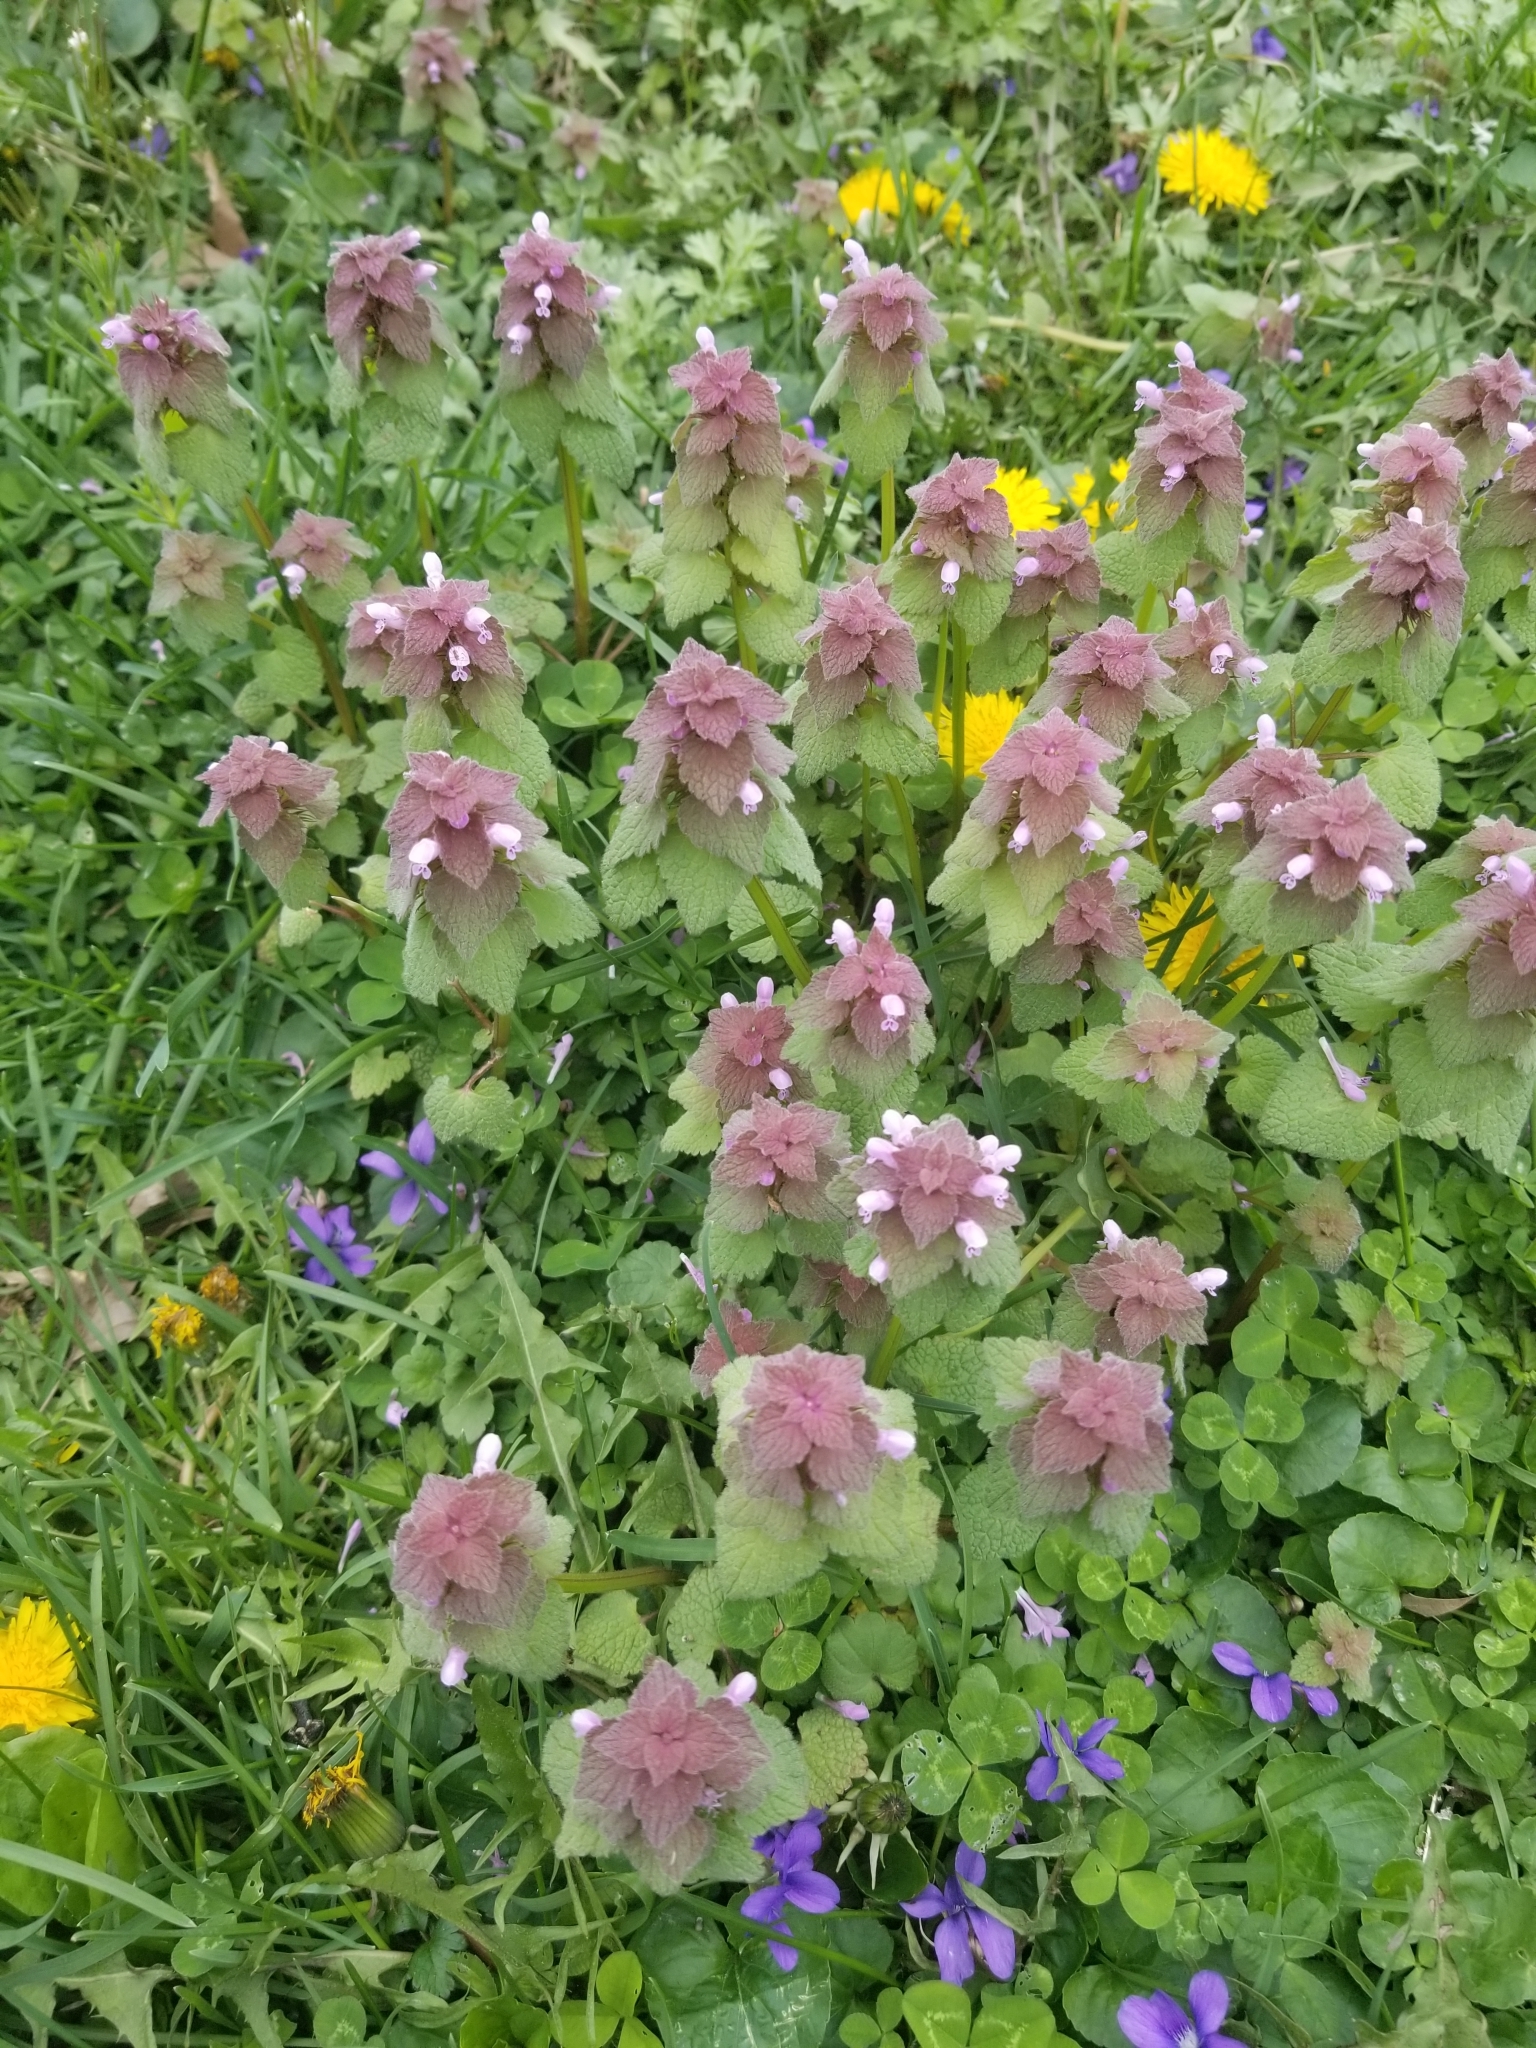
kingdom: Plantae
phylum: Tracheophyta
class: Magnoliopsida
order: Lamiales
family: Lamiaceae
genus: Lamium
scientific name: Lamium purpureum
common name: Red dead-nettle
